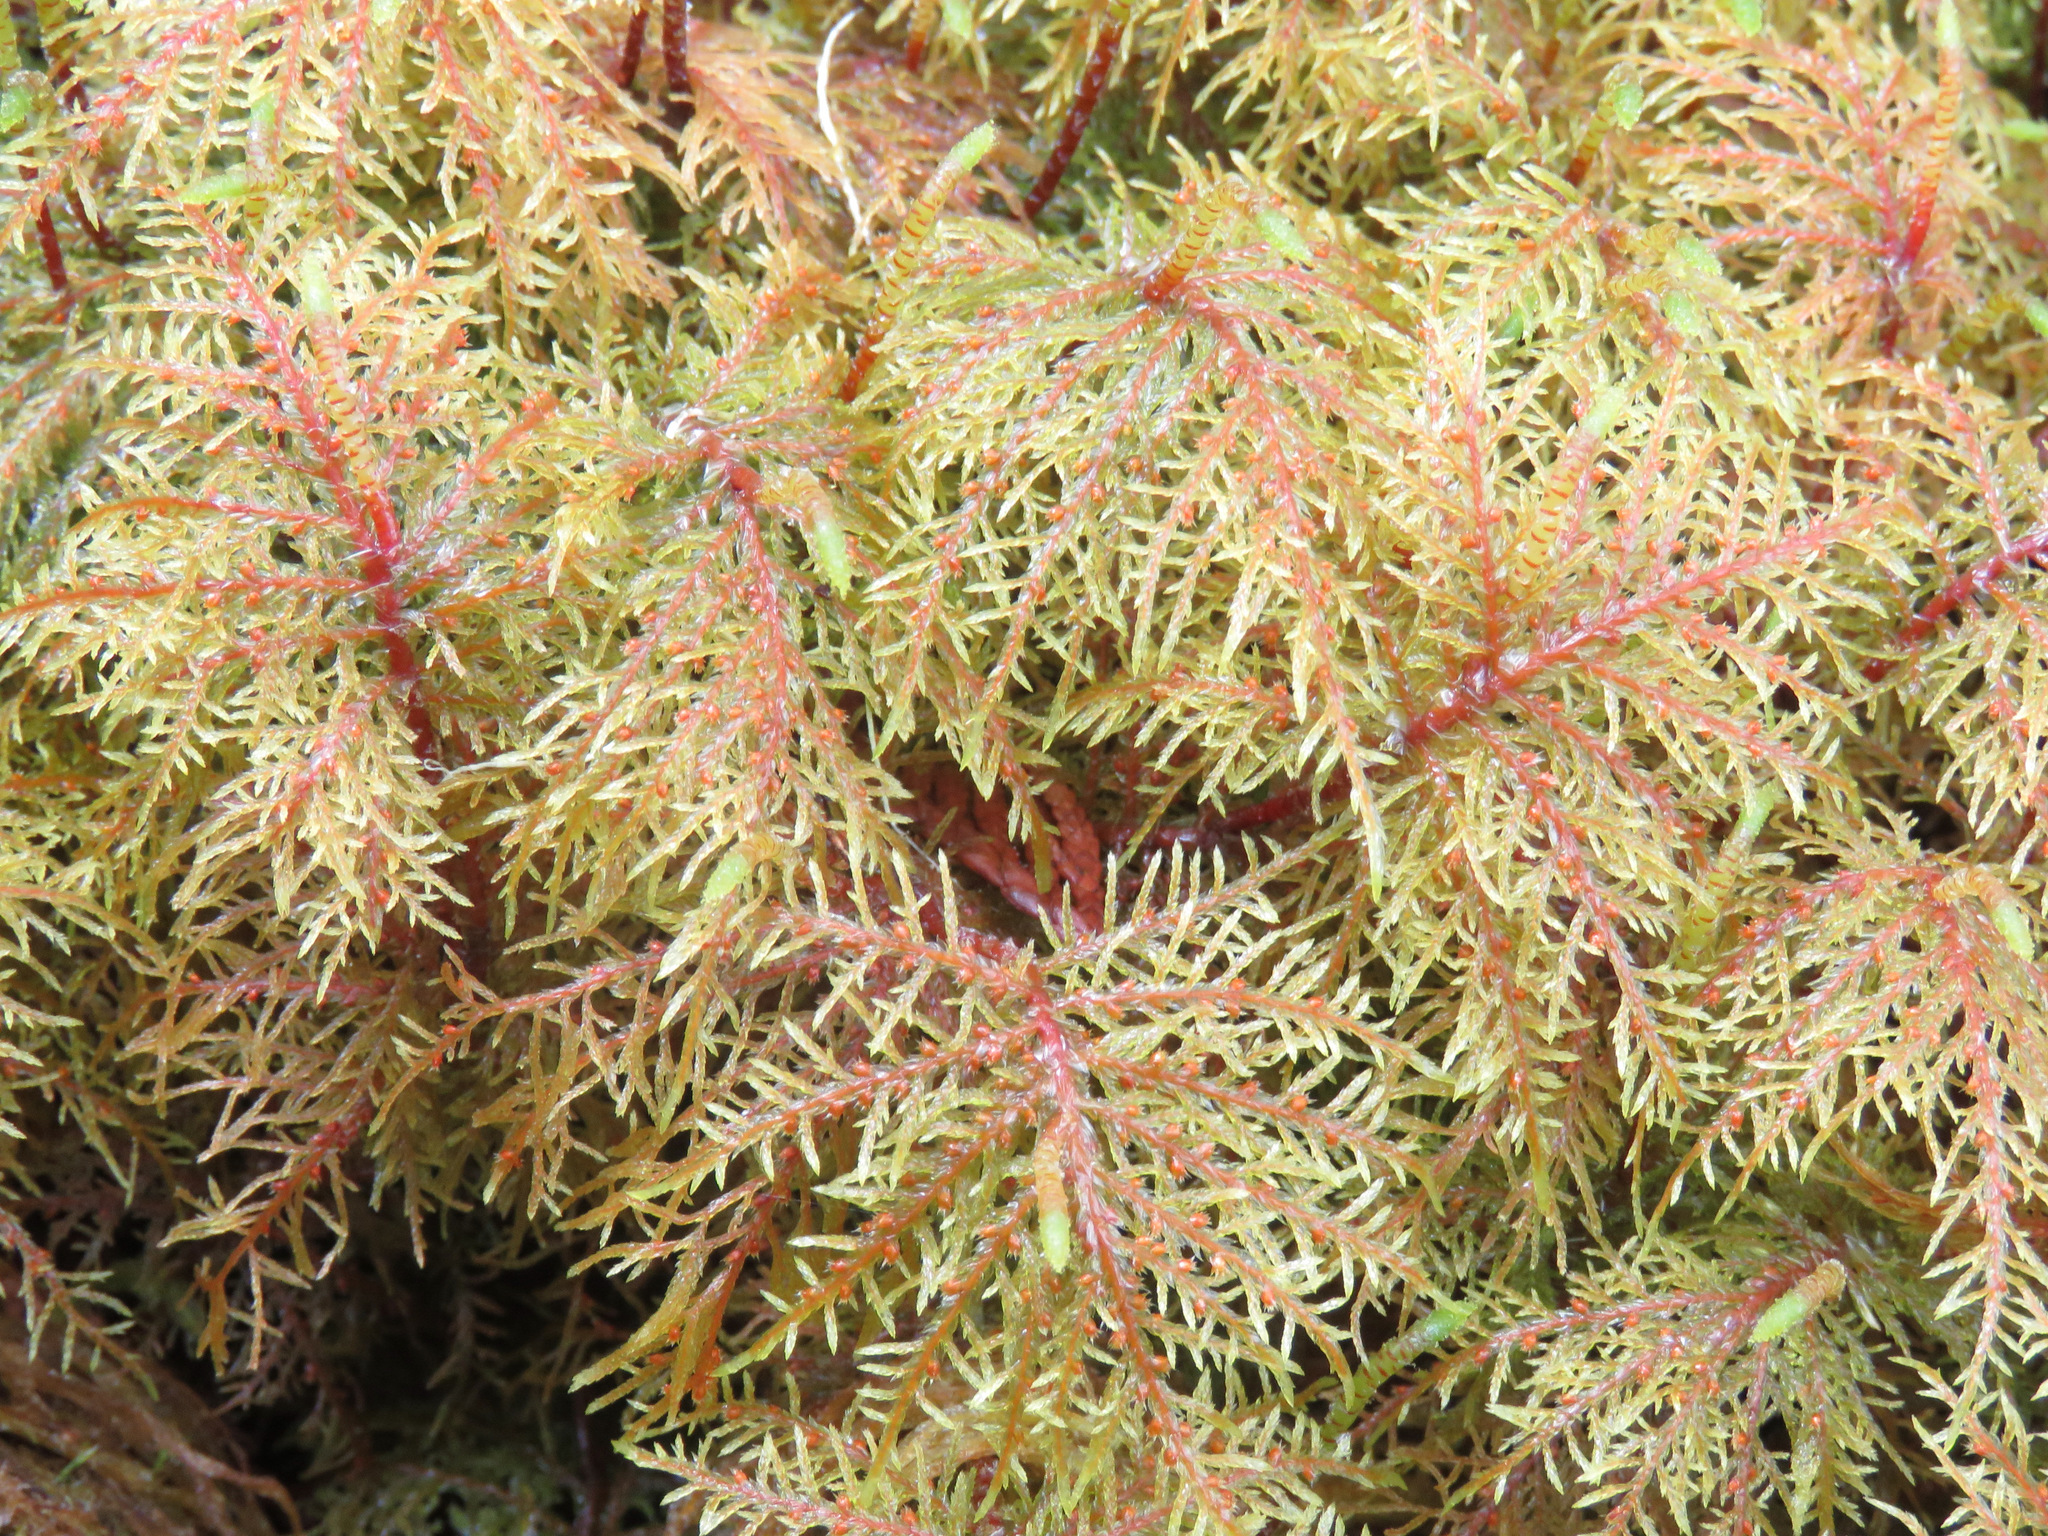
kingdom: Plantae
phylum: Bryophyta
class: Bryopsida
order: Hypnales
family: Hylocomiaceae
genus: Hylocomium
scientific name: Hylocomium splendens
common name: Stairstep moss
